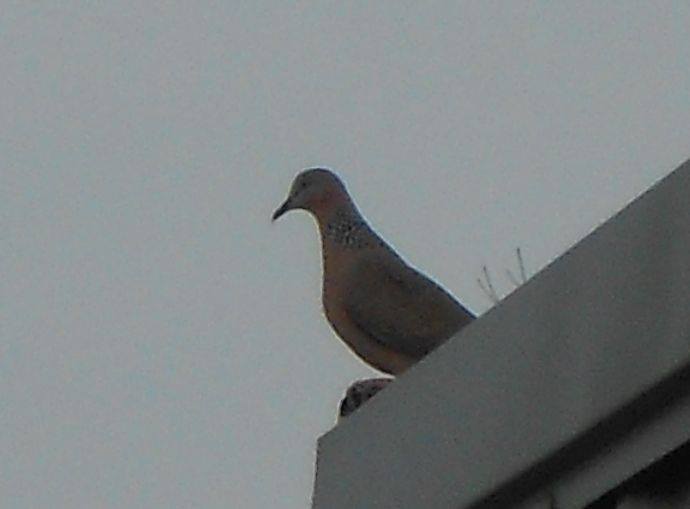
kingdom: Animalia
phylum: Chordata
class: Aves
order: Columbiformes
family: Columbidae
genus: Spilopelia
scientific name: Spilopelia chinensis
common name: Spotted dove
